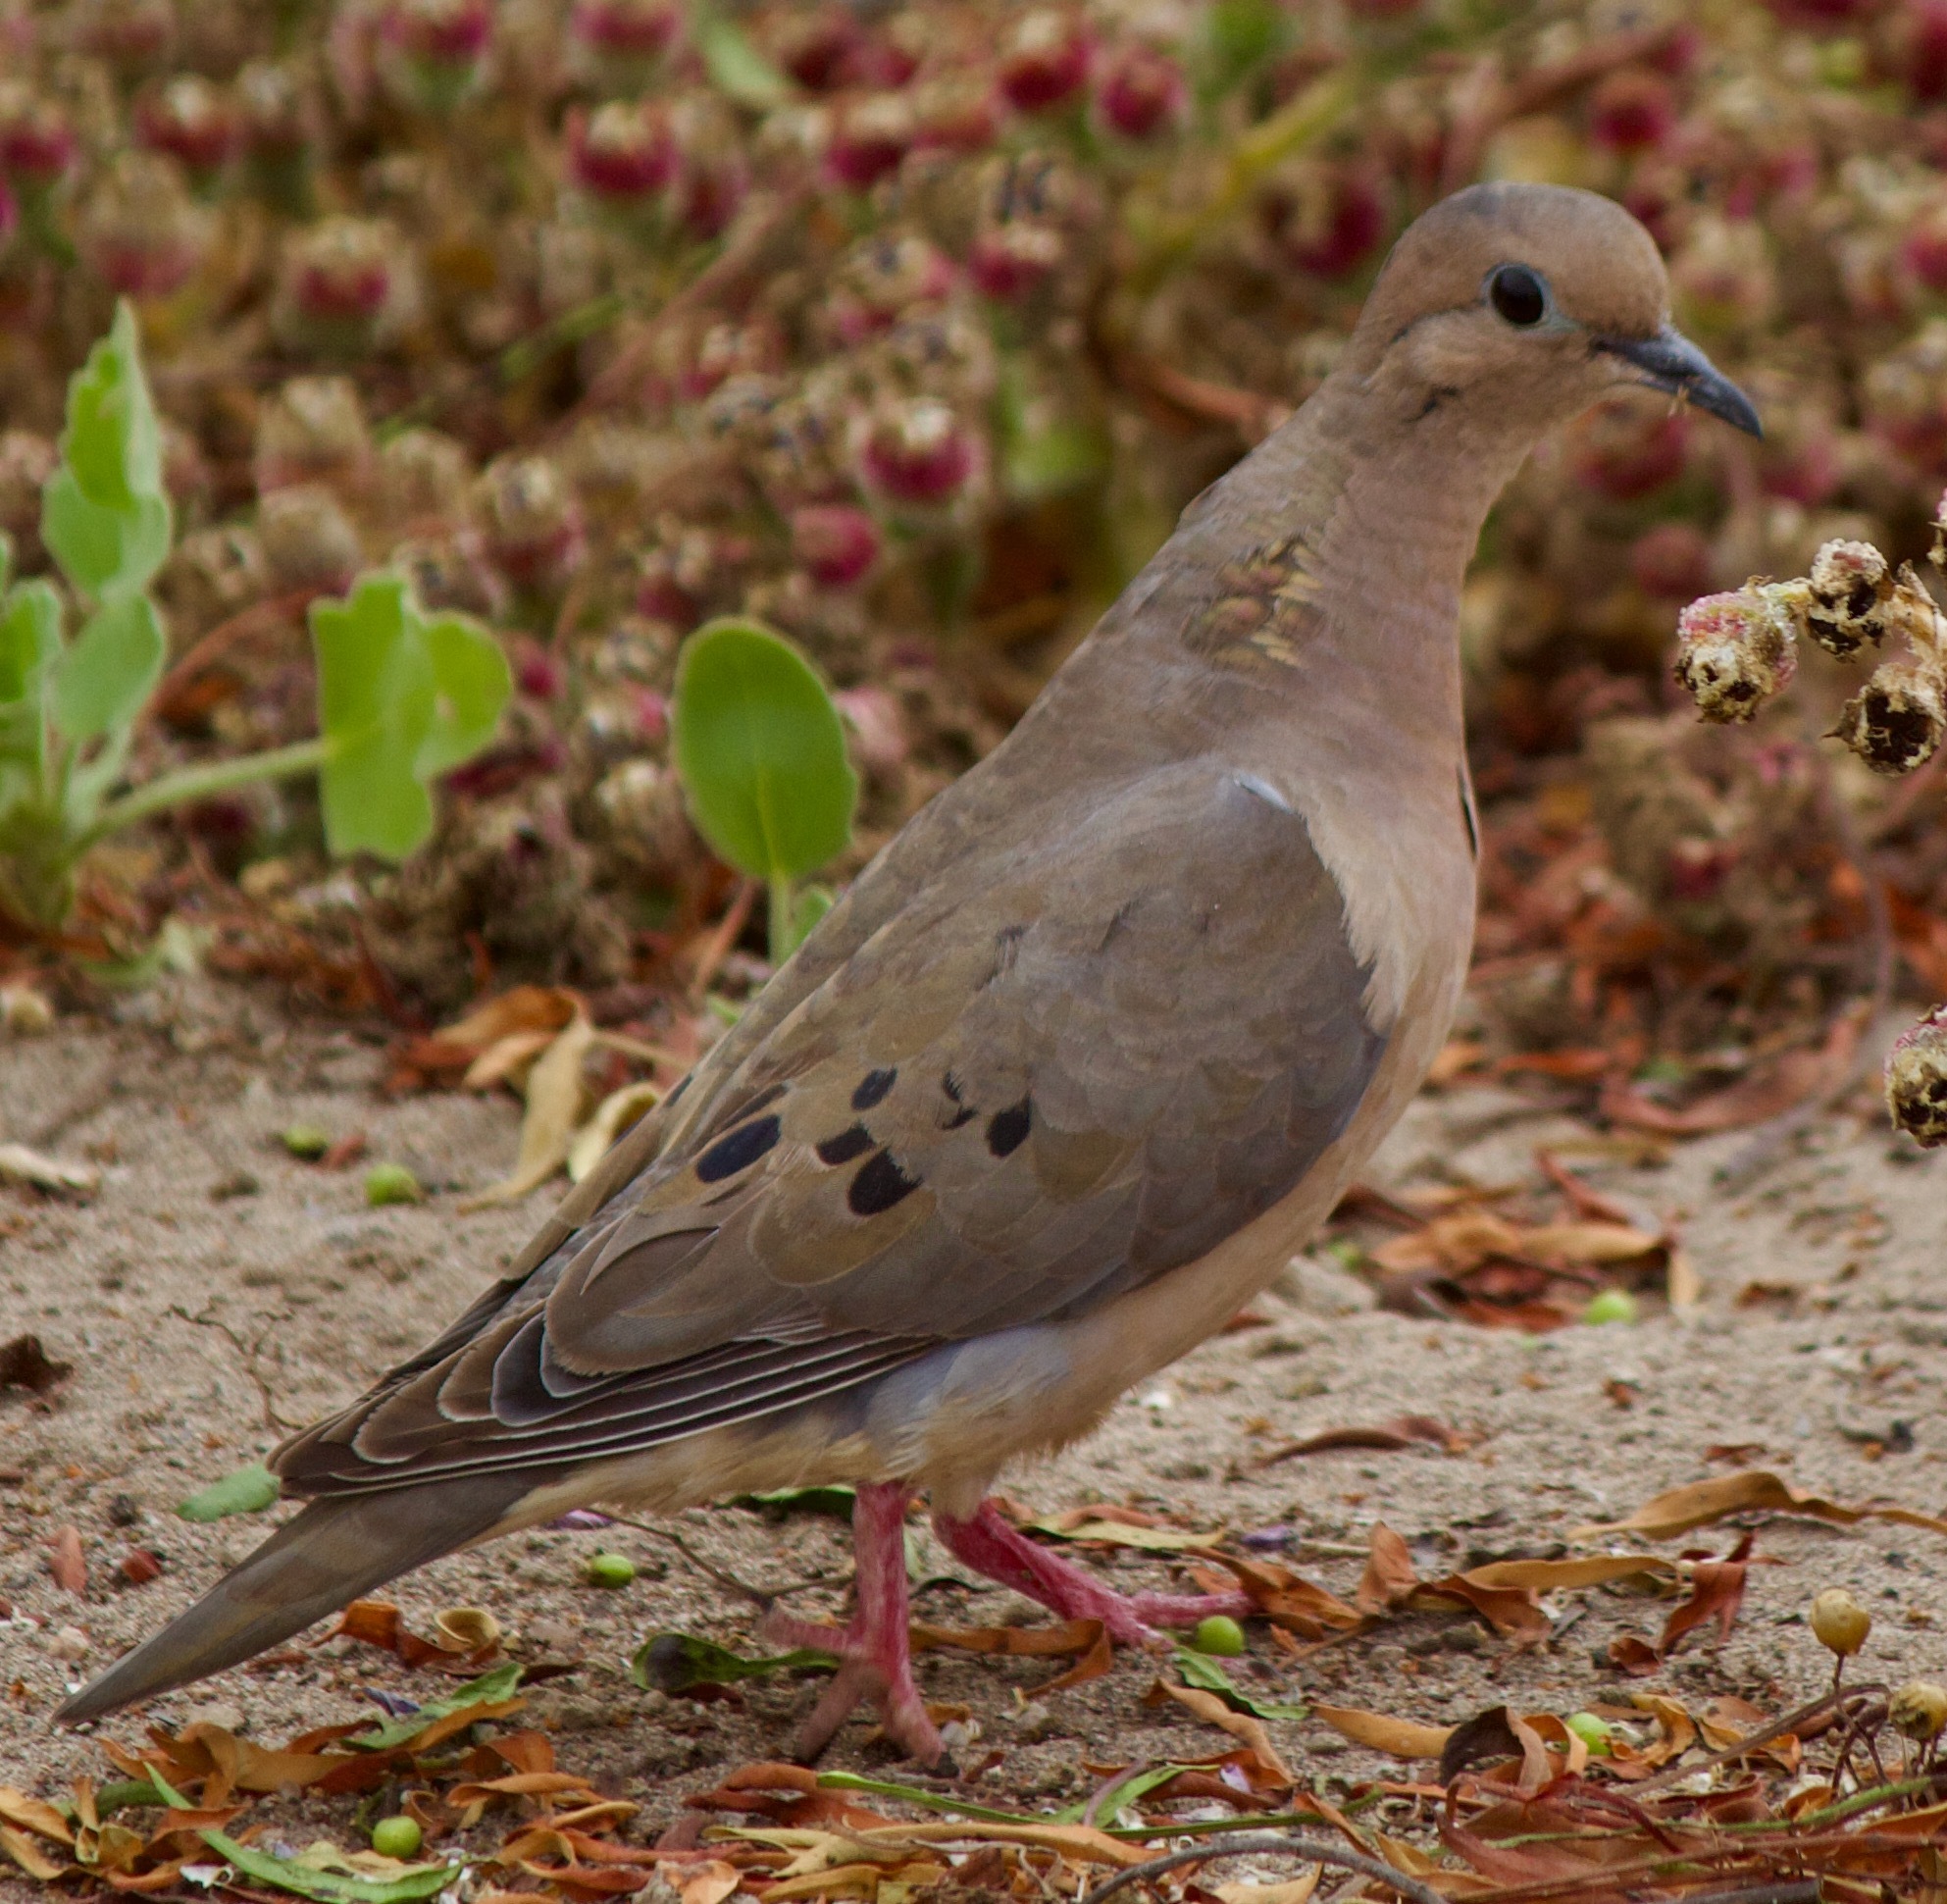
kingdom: Animalia
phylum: Chordata
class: Aves
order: Columbiformes
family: Columbidae
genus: Zenaida
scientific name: Zenaida auriculata
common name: Eared dove
